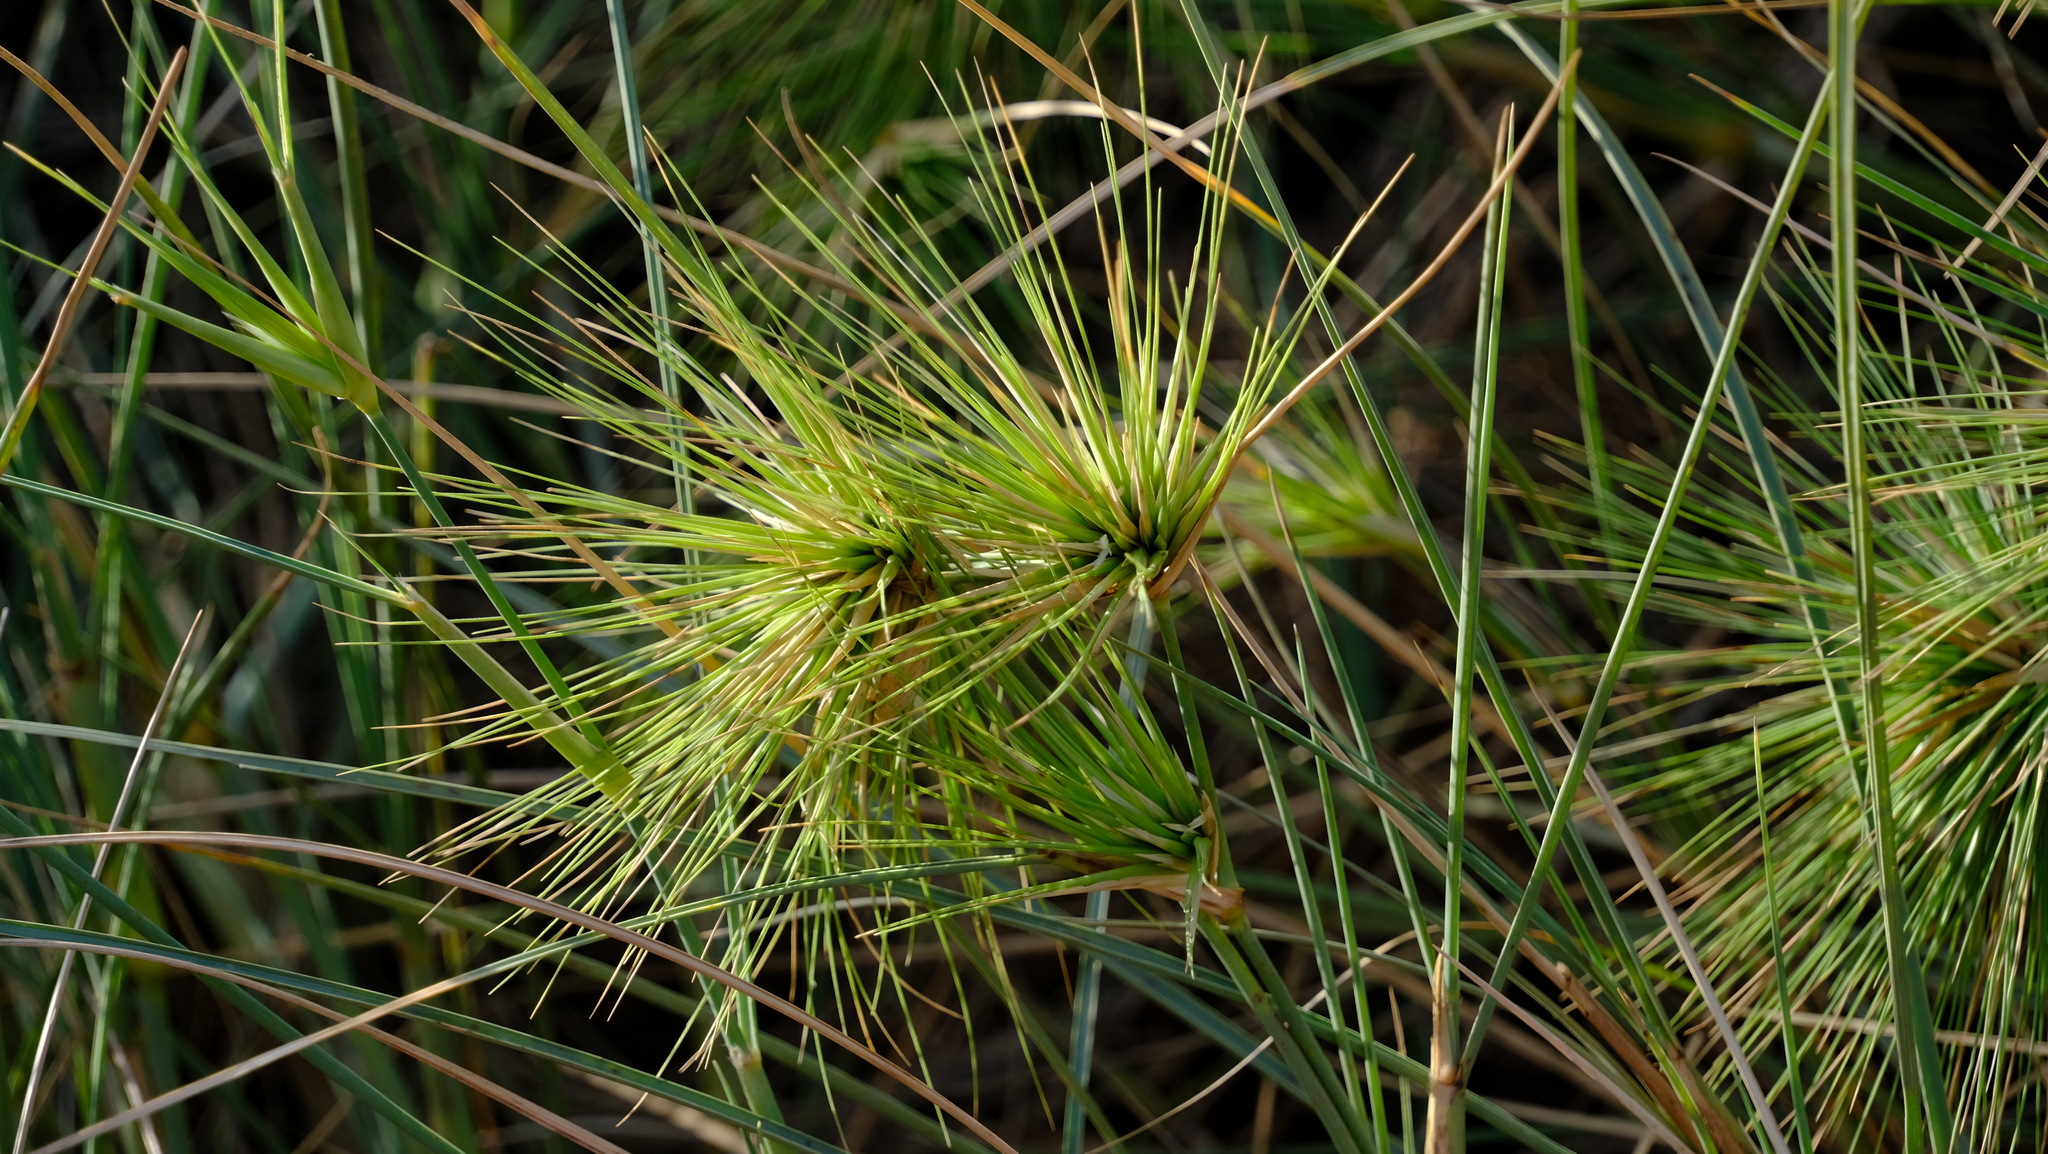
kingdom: Plantae
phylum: Tracheophyta
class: Liliopsida
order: Poales
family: Poaceae
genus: Spinifex
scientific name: Spinifex longifolius
